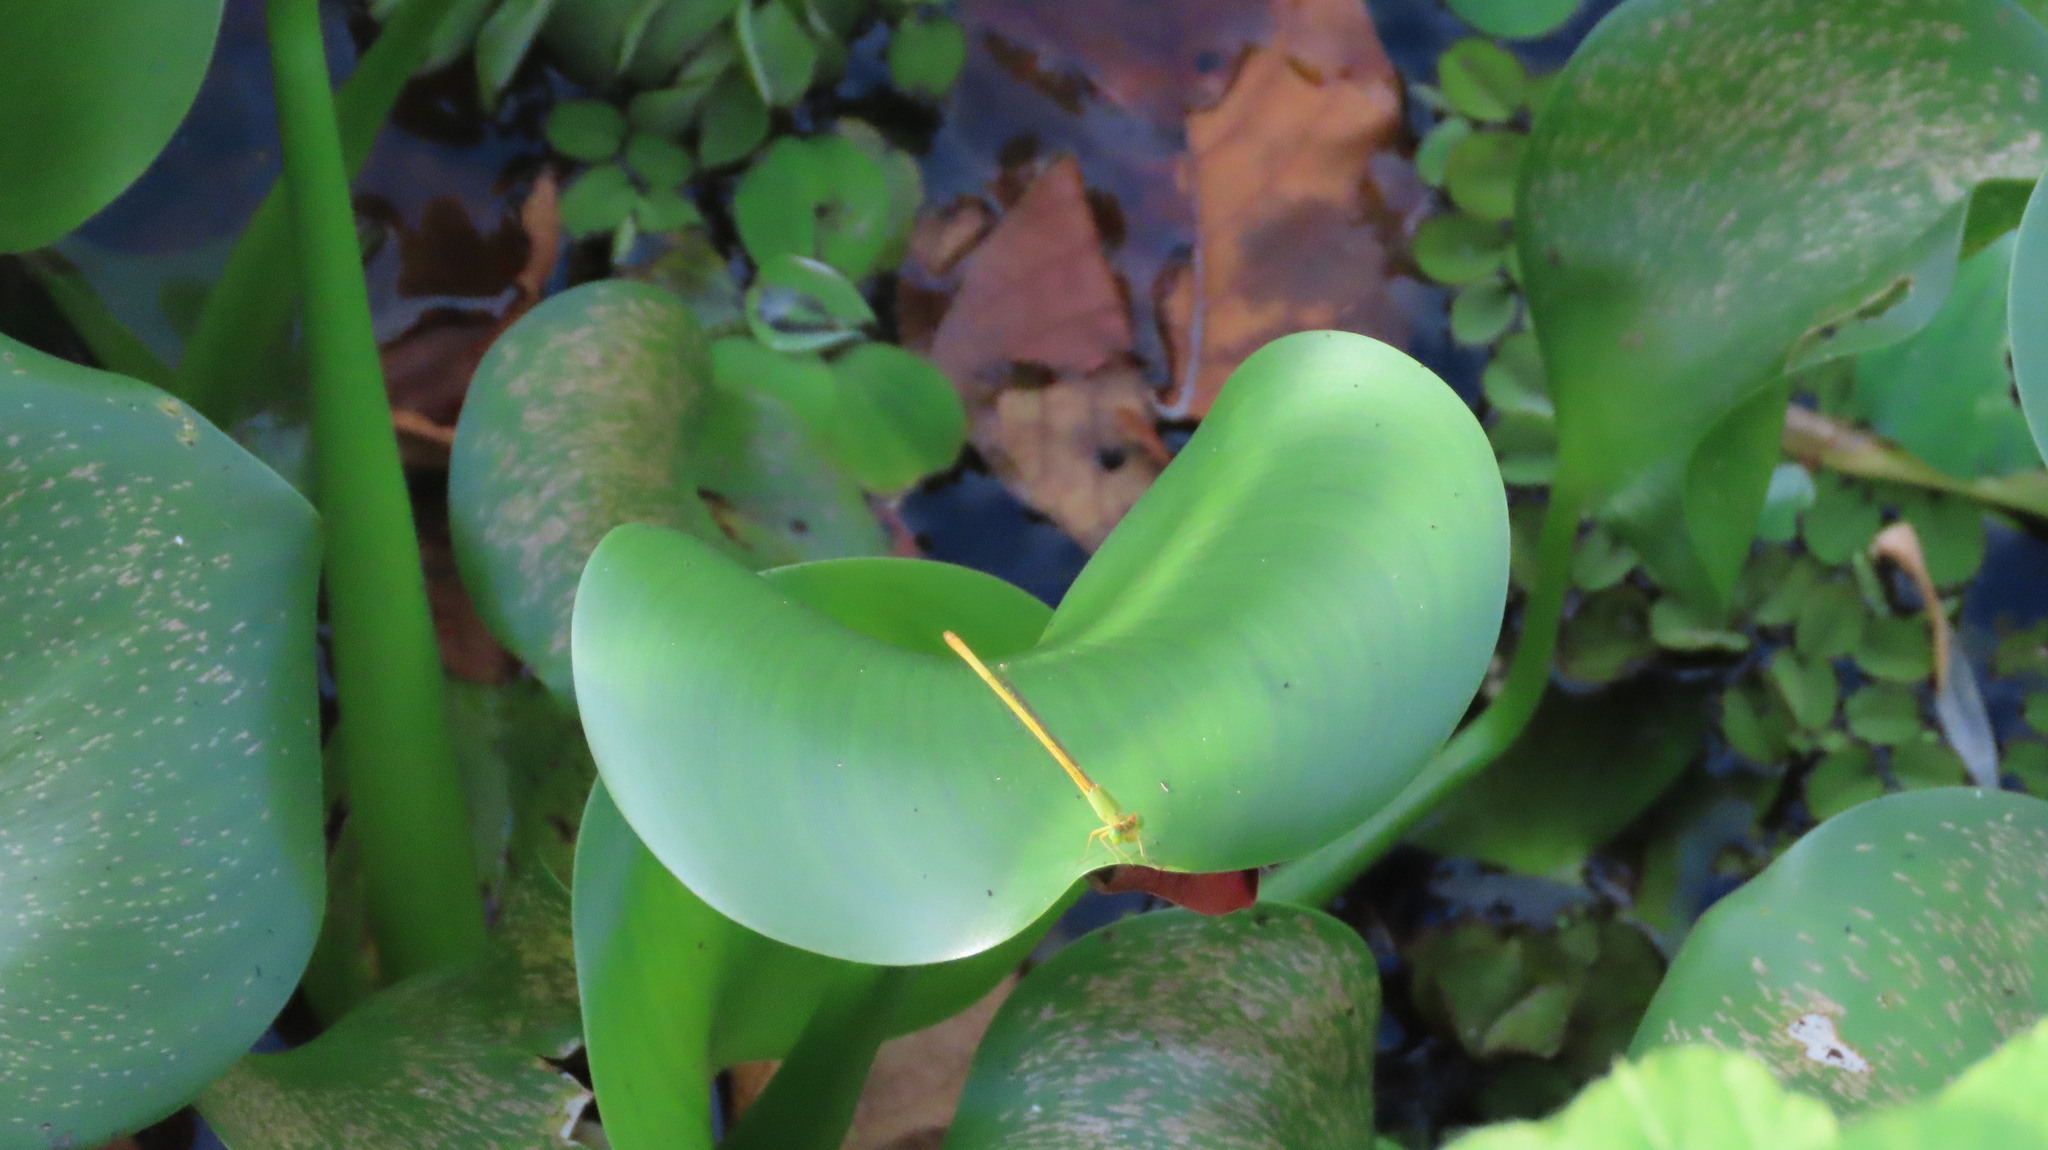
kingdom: Animalia
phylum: Arthropoda
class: Insecta
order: Odonata
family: Coenagrionidae
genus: Ceriagrion
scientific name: Ceriagrion coromandelianum
